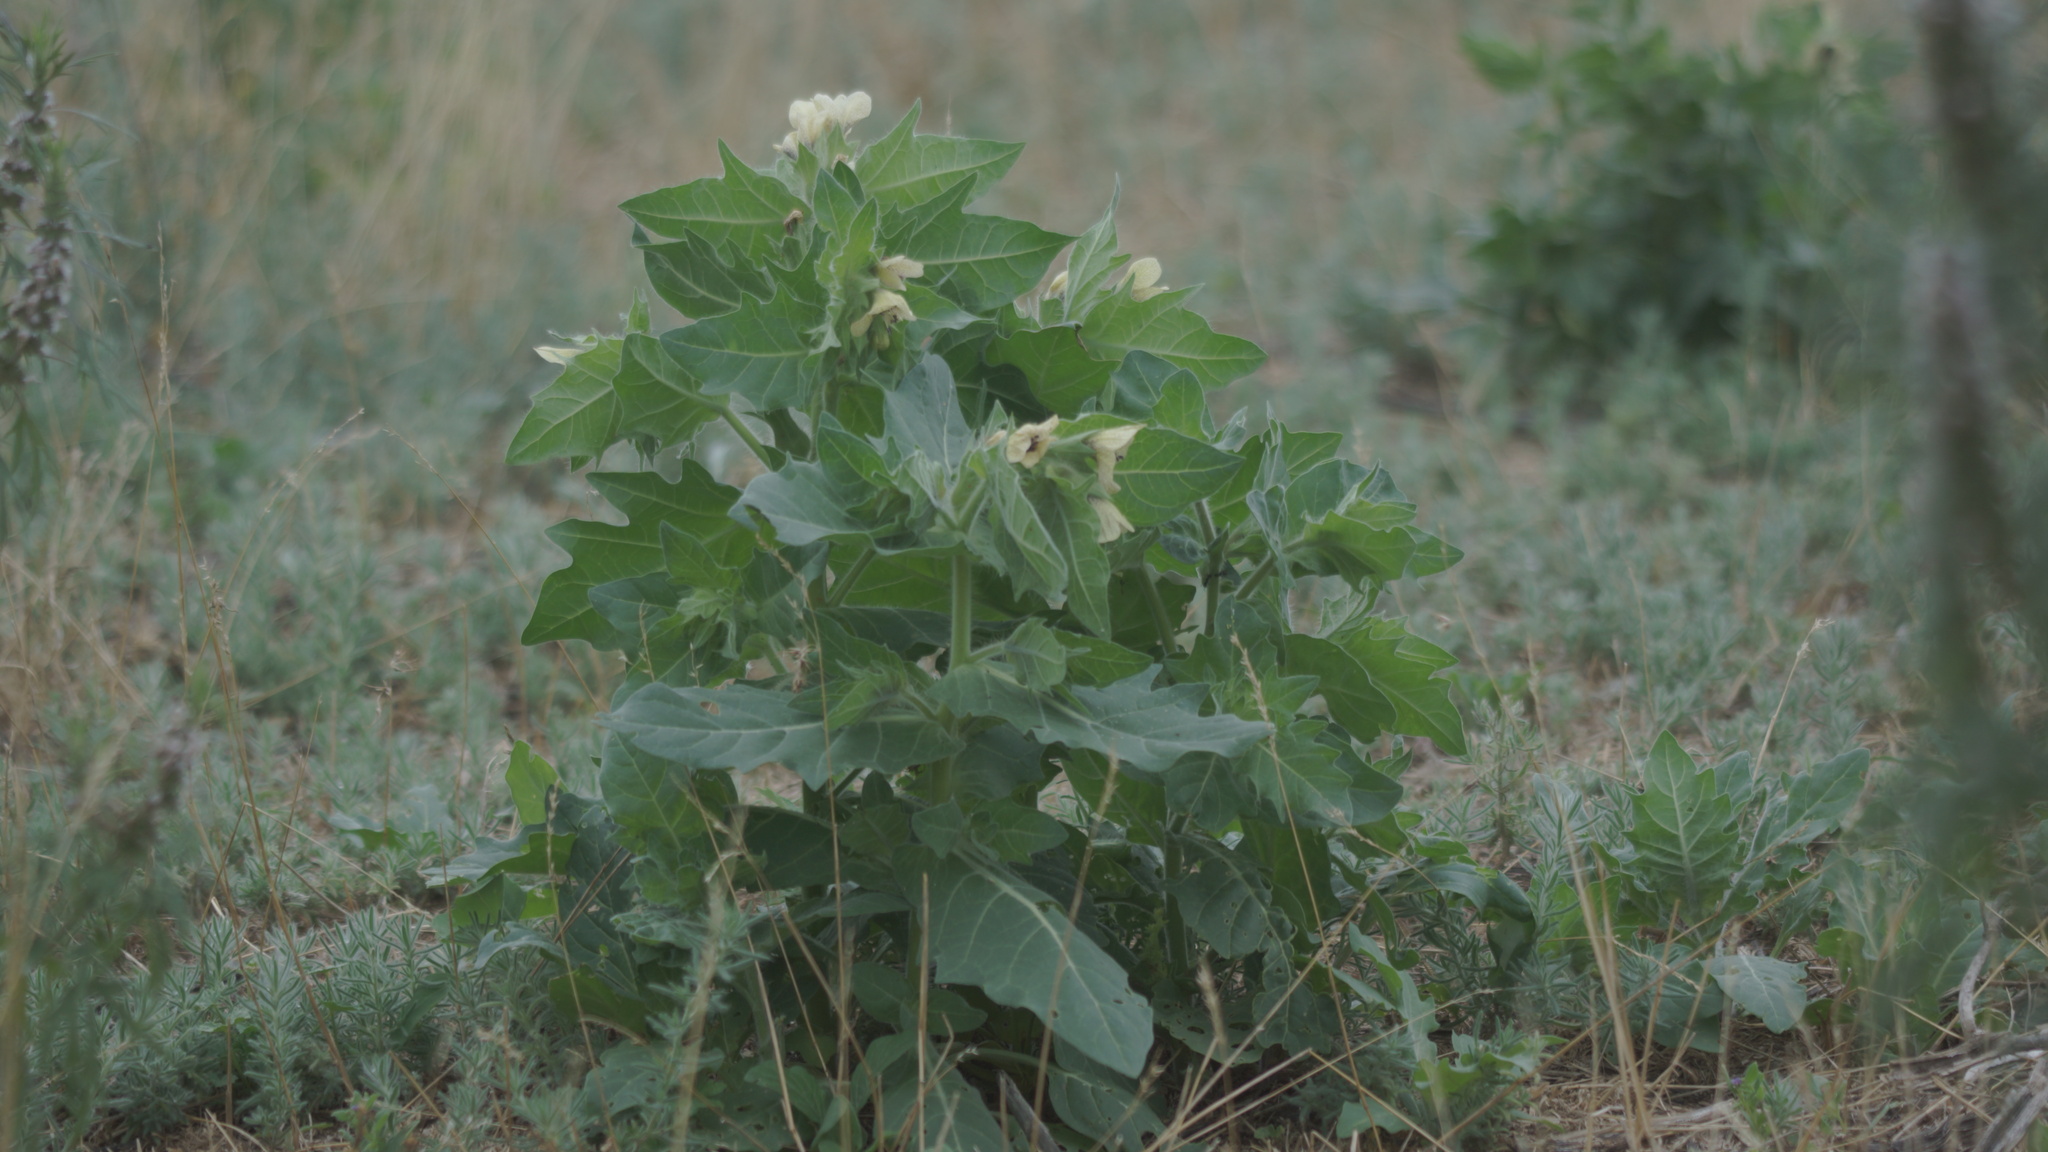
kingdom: Plantae
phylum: Tracheophyta
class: Magnoliopsida
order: Solanales
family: Solanaceae
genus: Hyoscyamus
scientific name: Hyoscyamus niger
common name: Henbane
